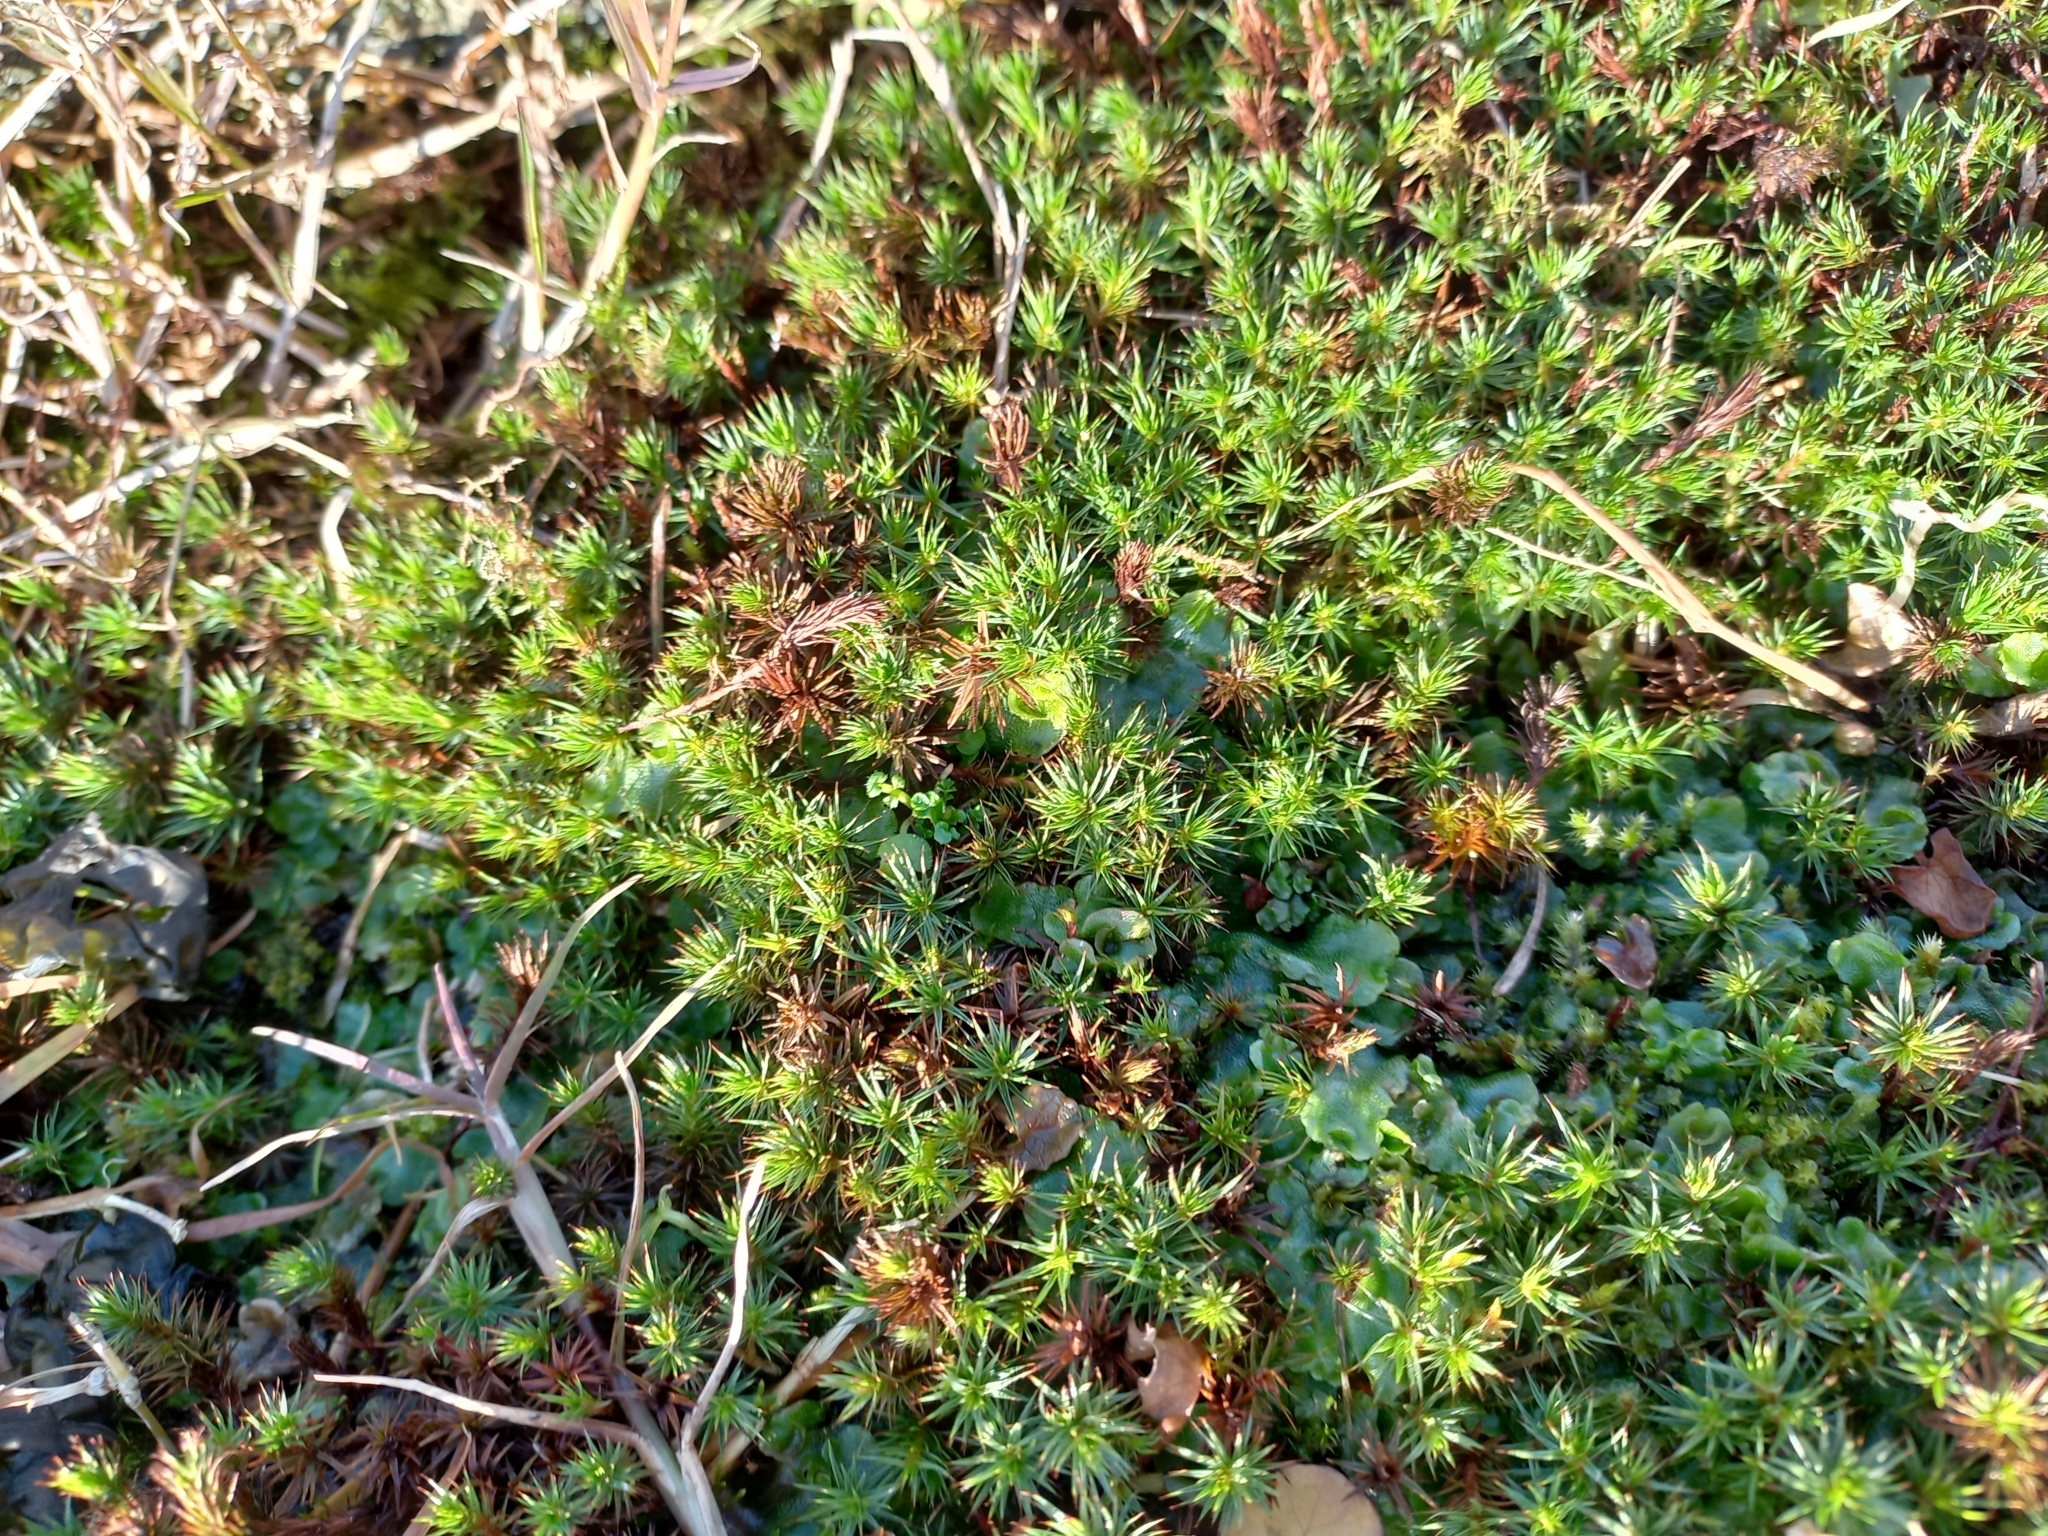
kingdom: Plantae
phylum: Bryophyta
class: Polytrichopsida
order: Polytrichales
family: Polytrichaceae
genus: Polytrichum
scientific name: Polytrichum juniperinum
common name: Juniper haircap moss
